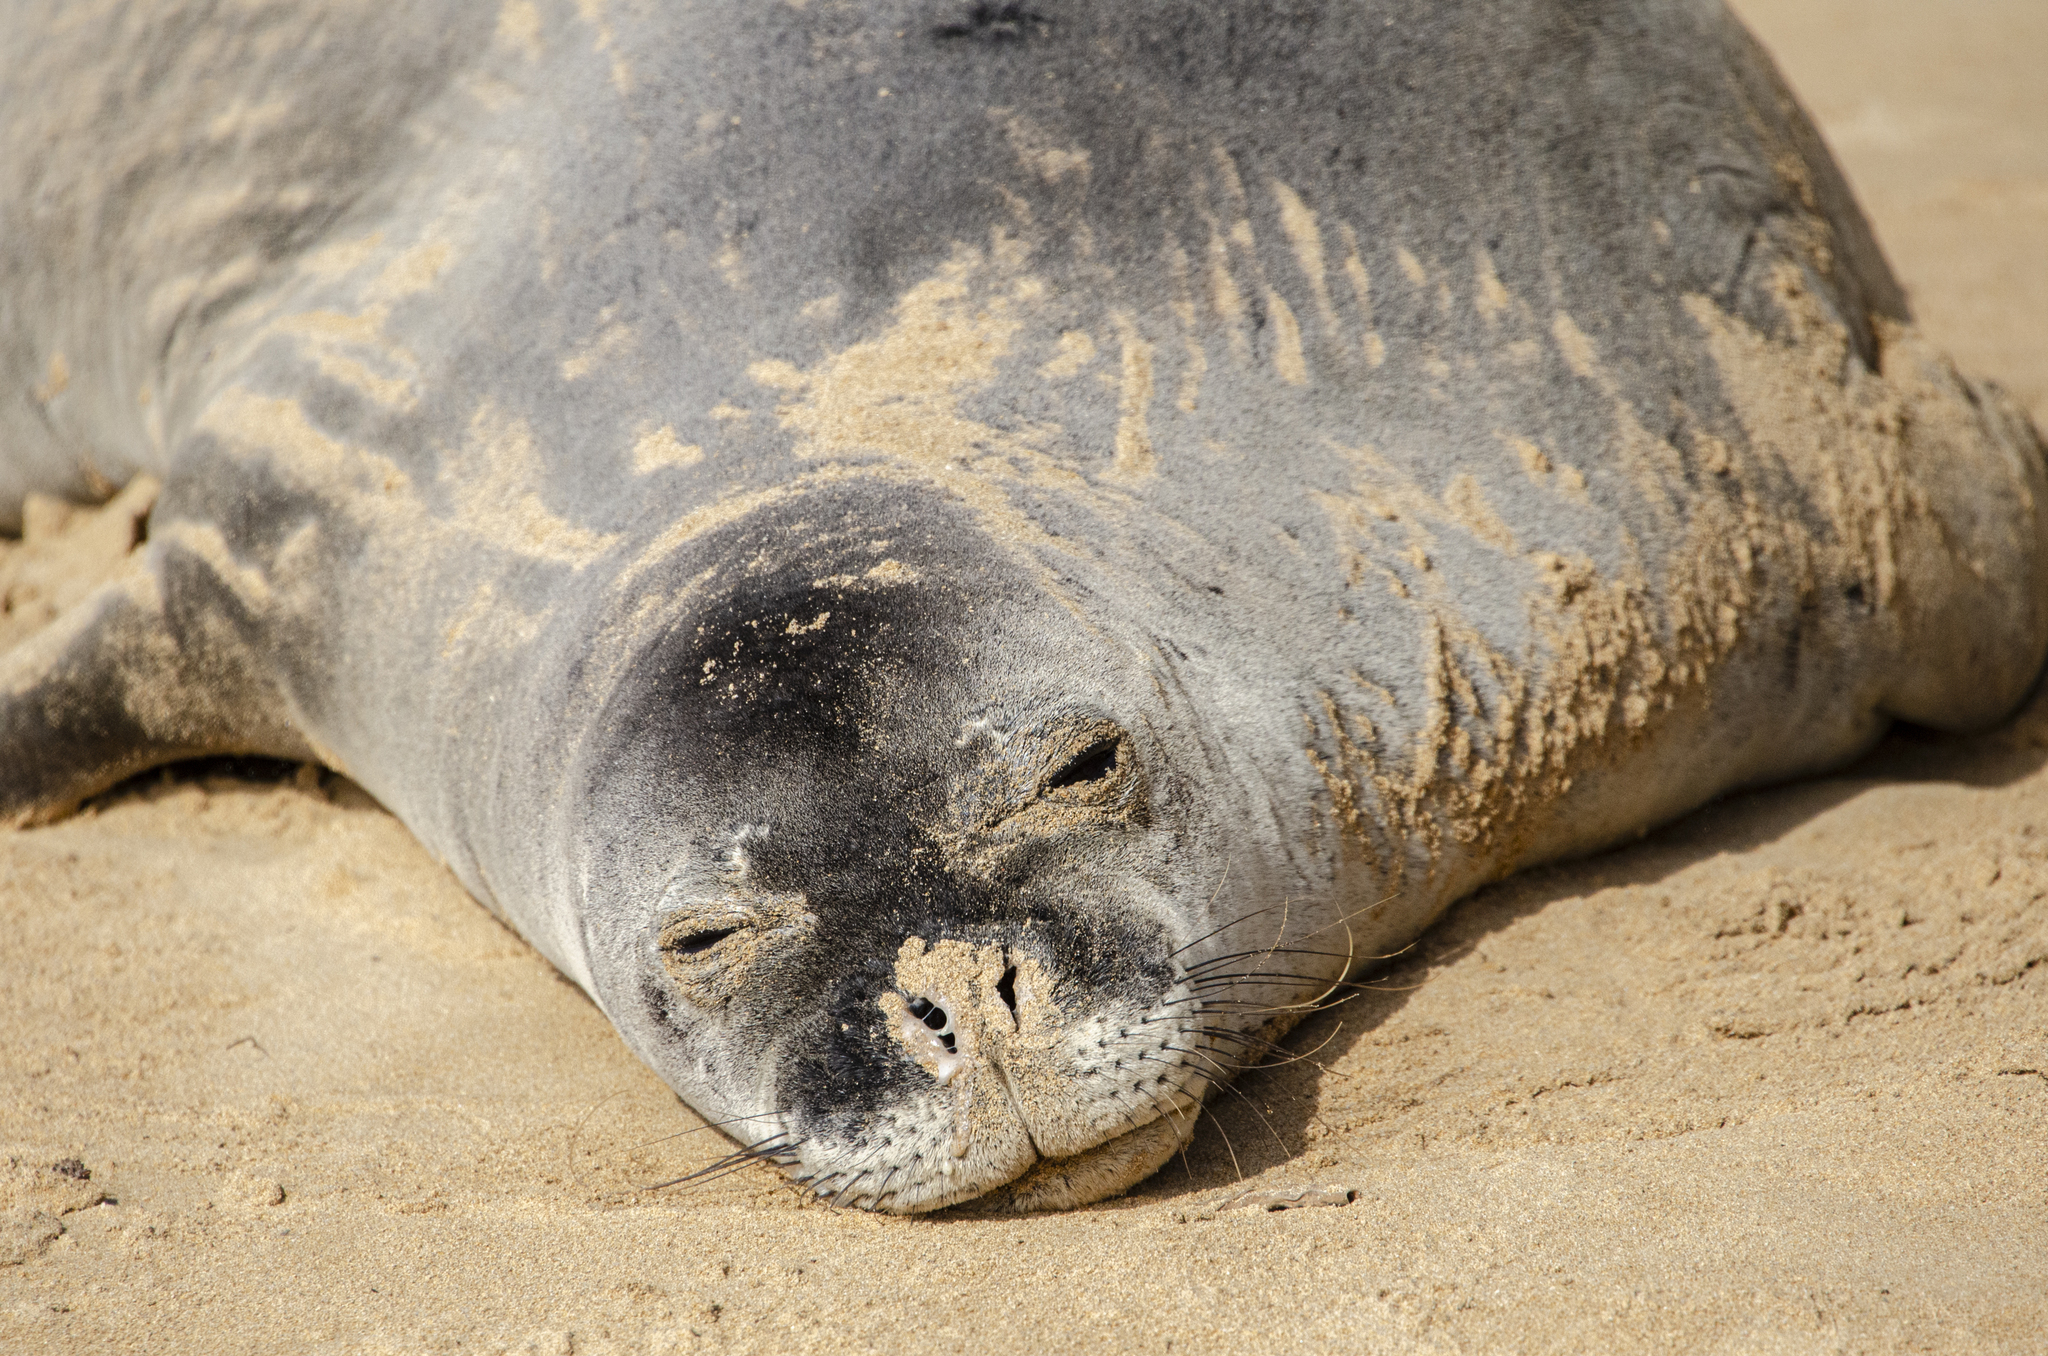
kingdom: Animalia
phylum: Chordata
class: Mammalia
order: Carnivora
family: Phocidae
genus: Neomonachus
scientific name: Neomonachus schauinslandi
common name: Hawaiian monk seal
